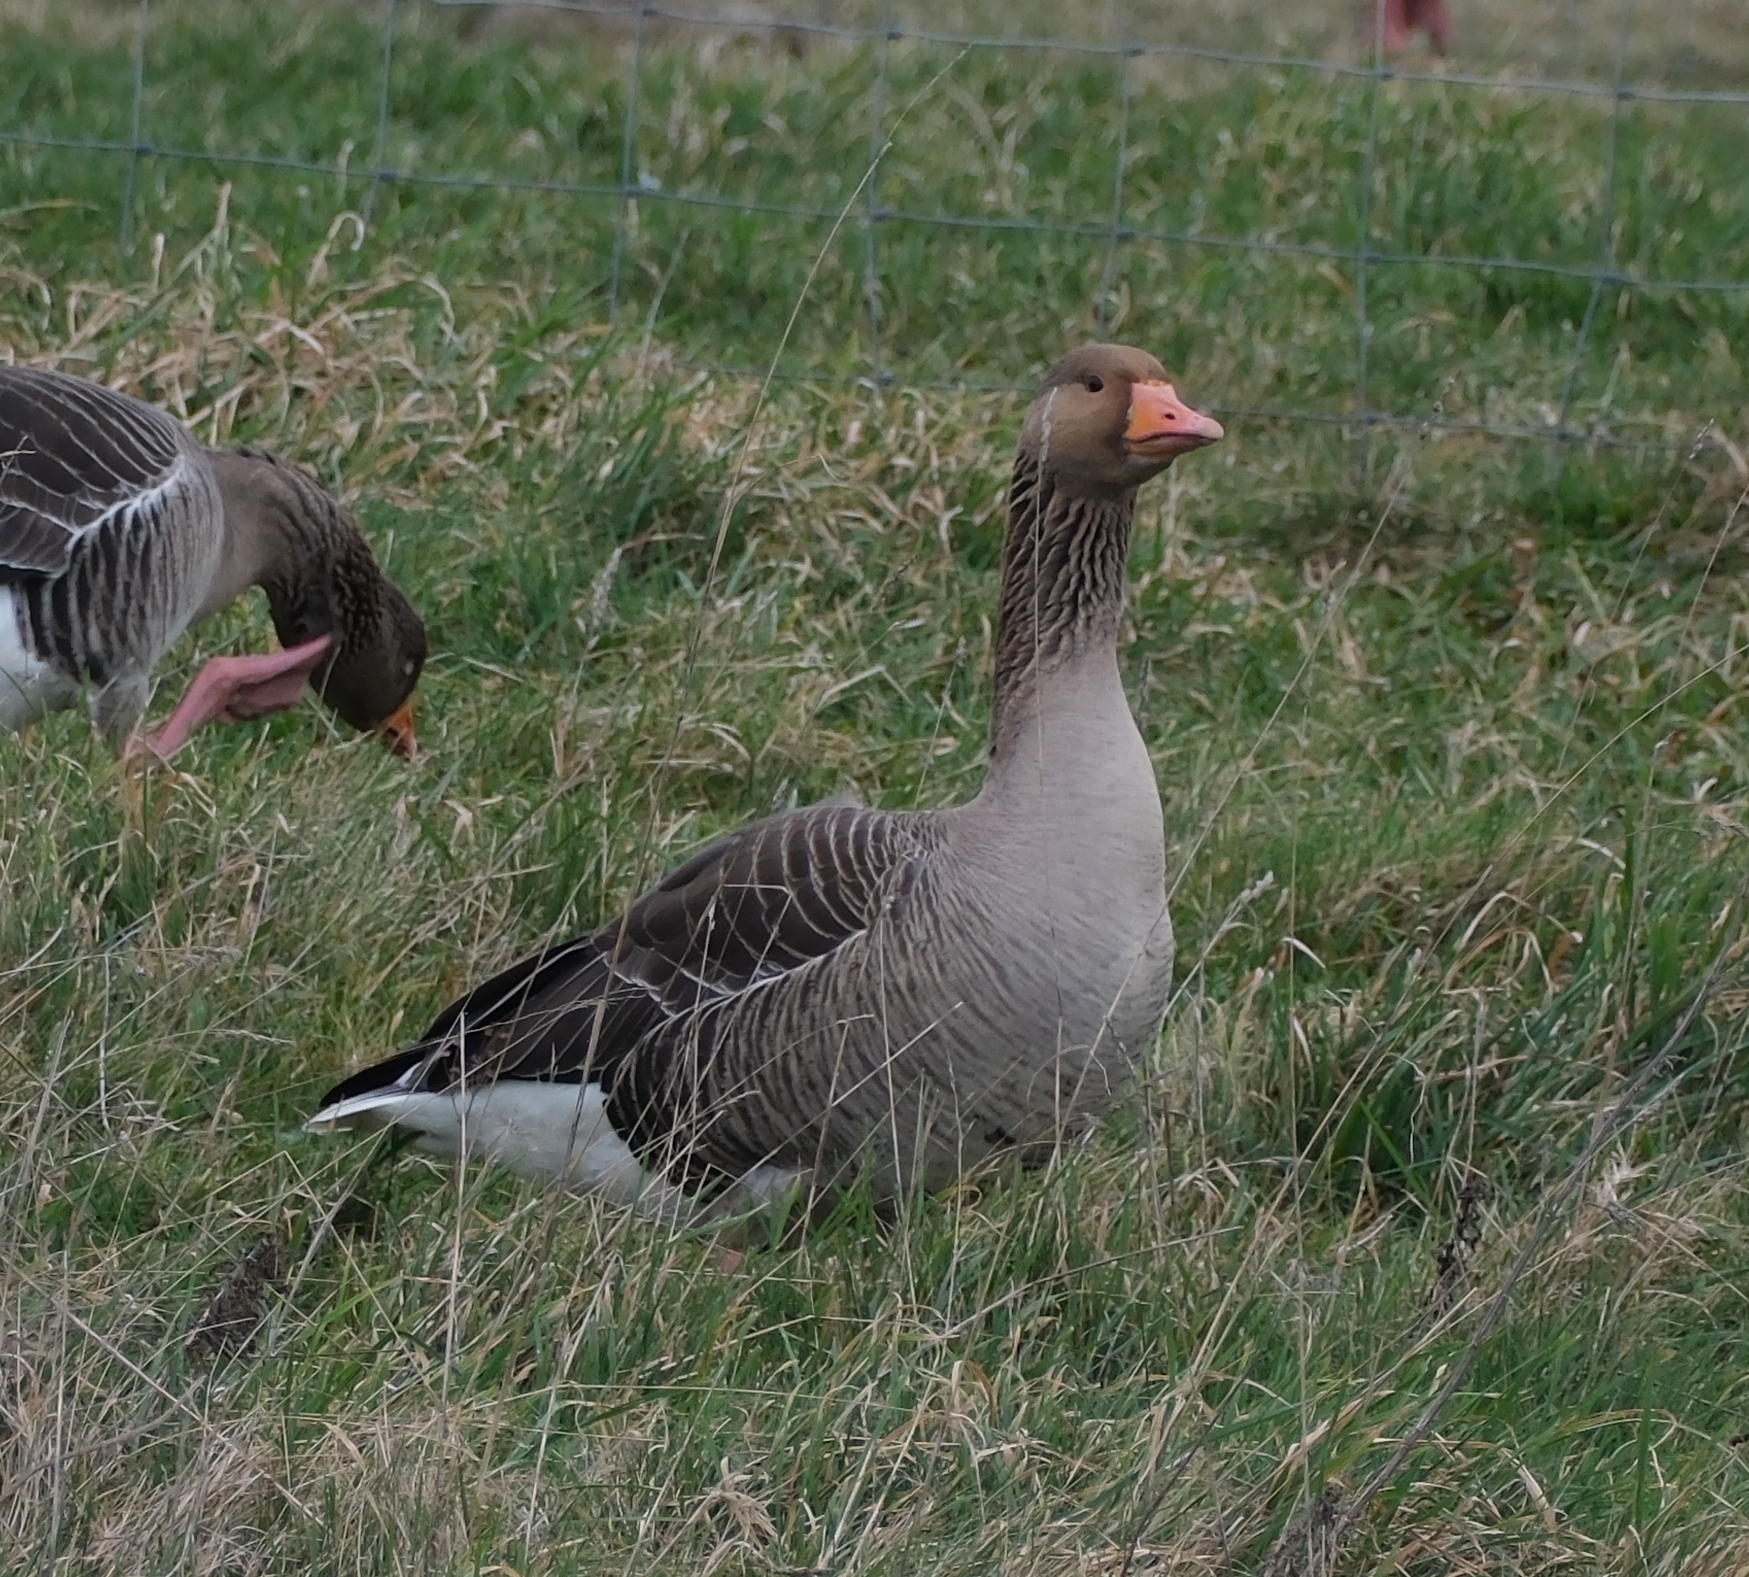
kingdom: Animalia
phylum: Chordata
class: Aves
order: Anseriformes
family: Anatidae
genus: Anser
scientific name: Anser anser
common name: Greylag goose
